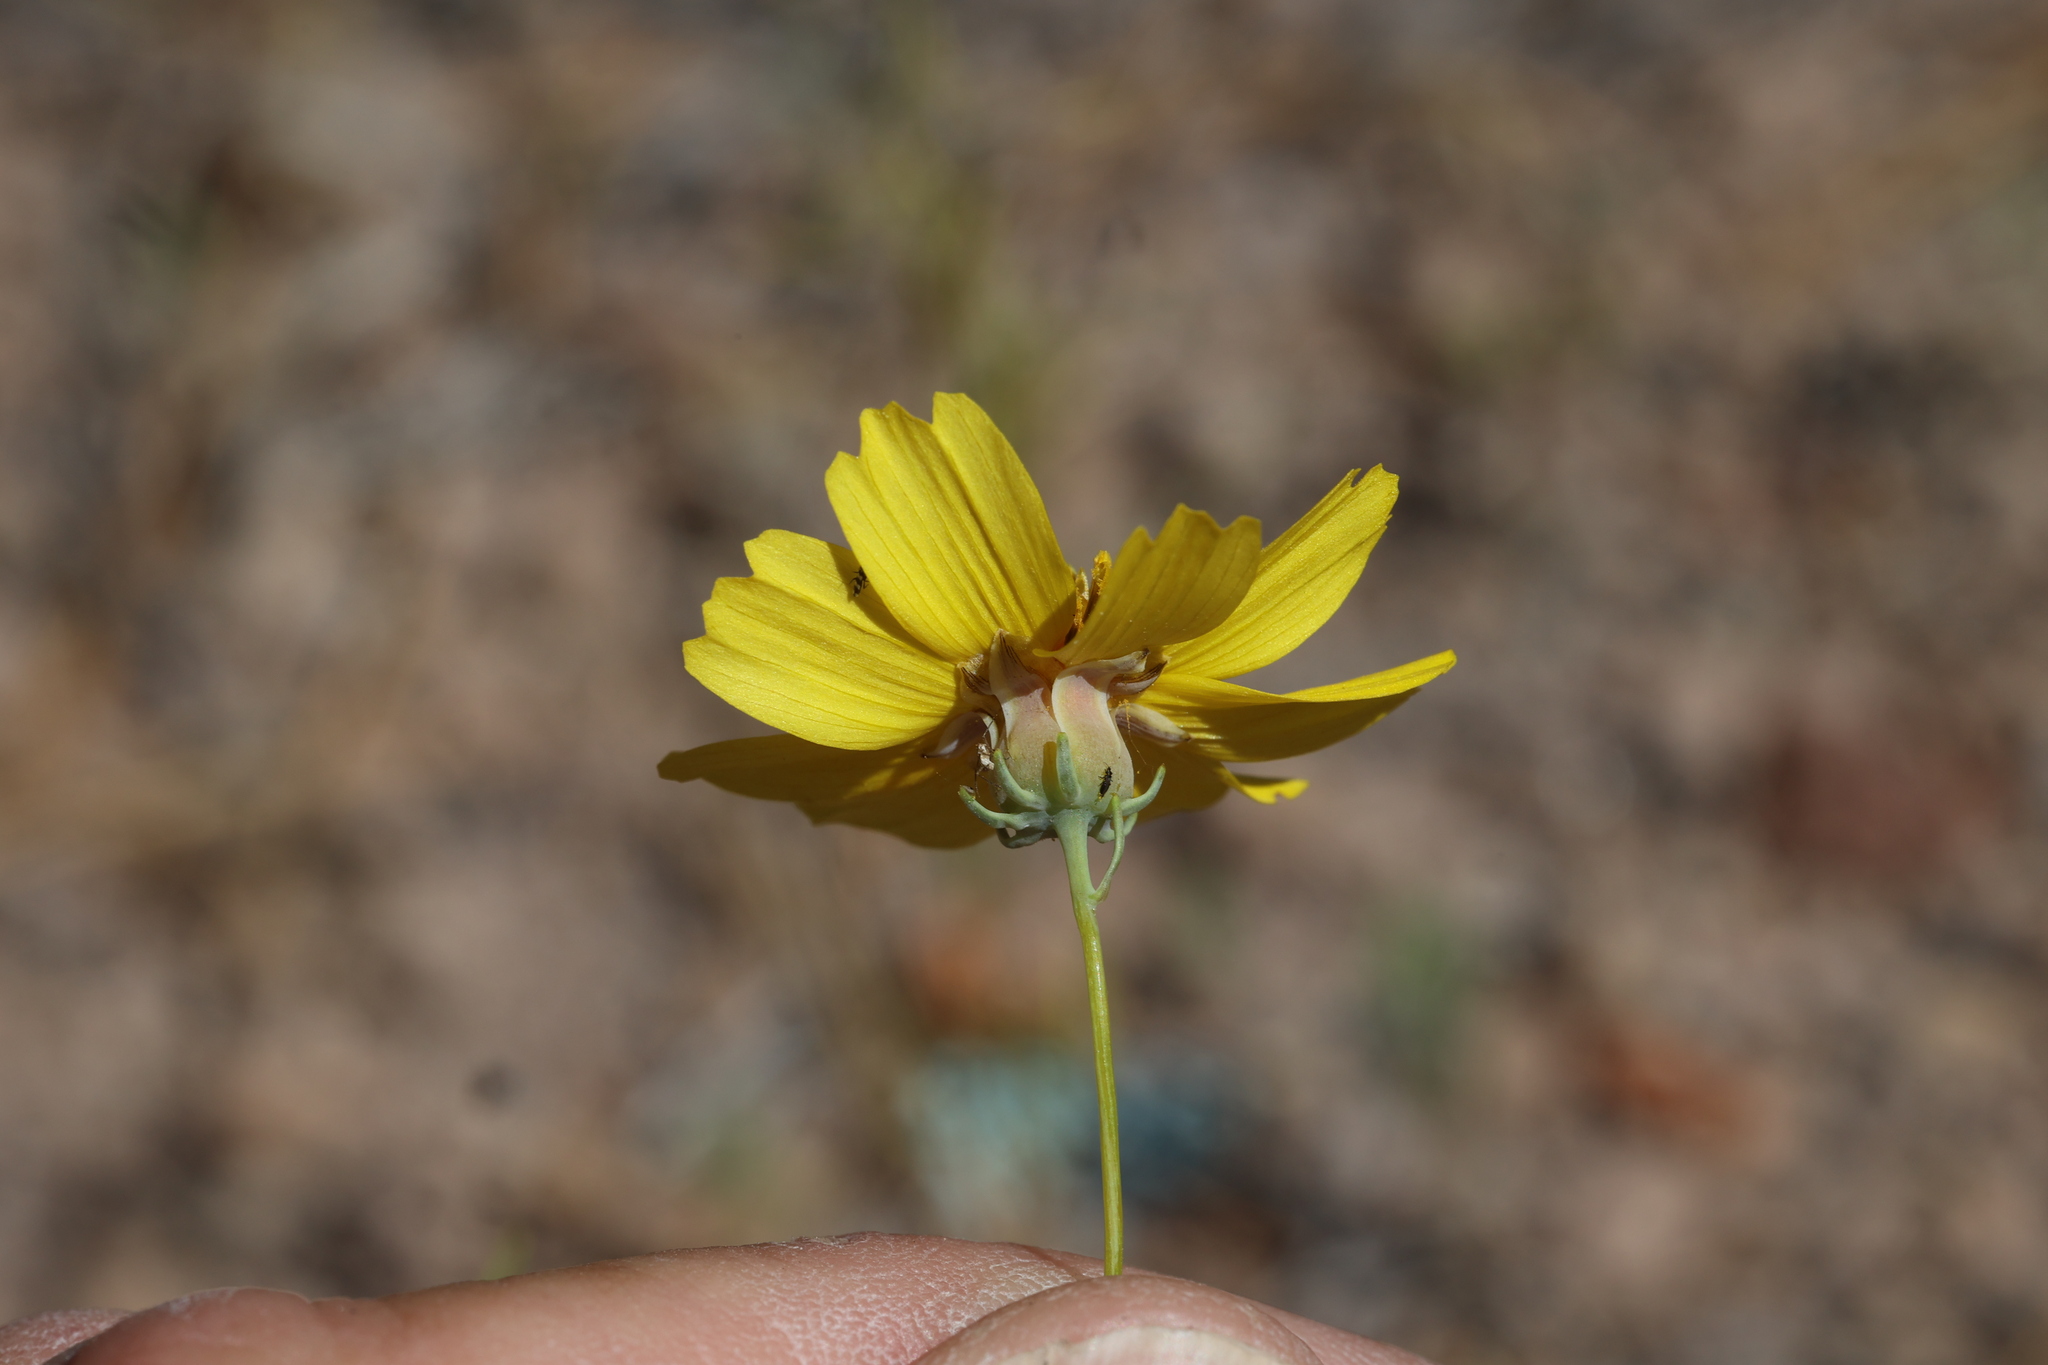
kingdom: Plantae
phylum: Tracheophyta
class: Magnoliopsida
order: Asterales
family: Asteraceae
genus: Thelesperma
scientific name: Thelesperma filifolium
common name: Stiff greenthread
